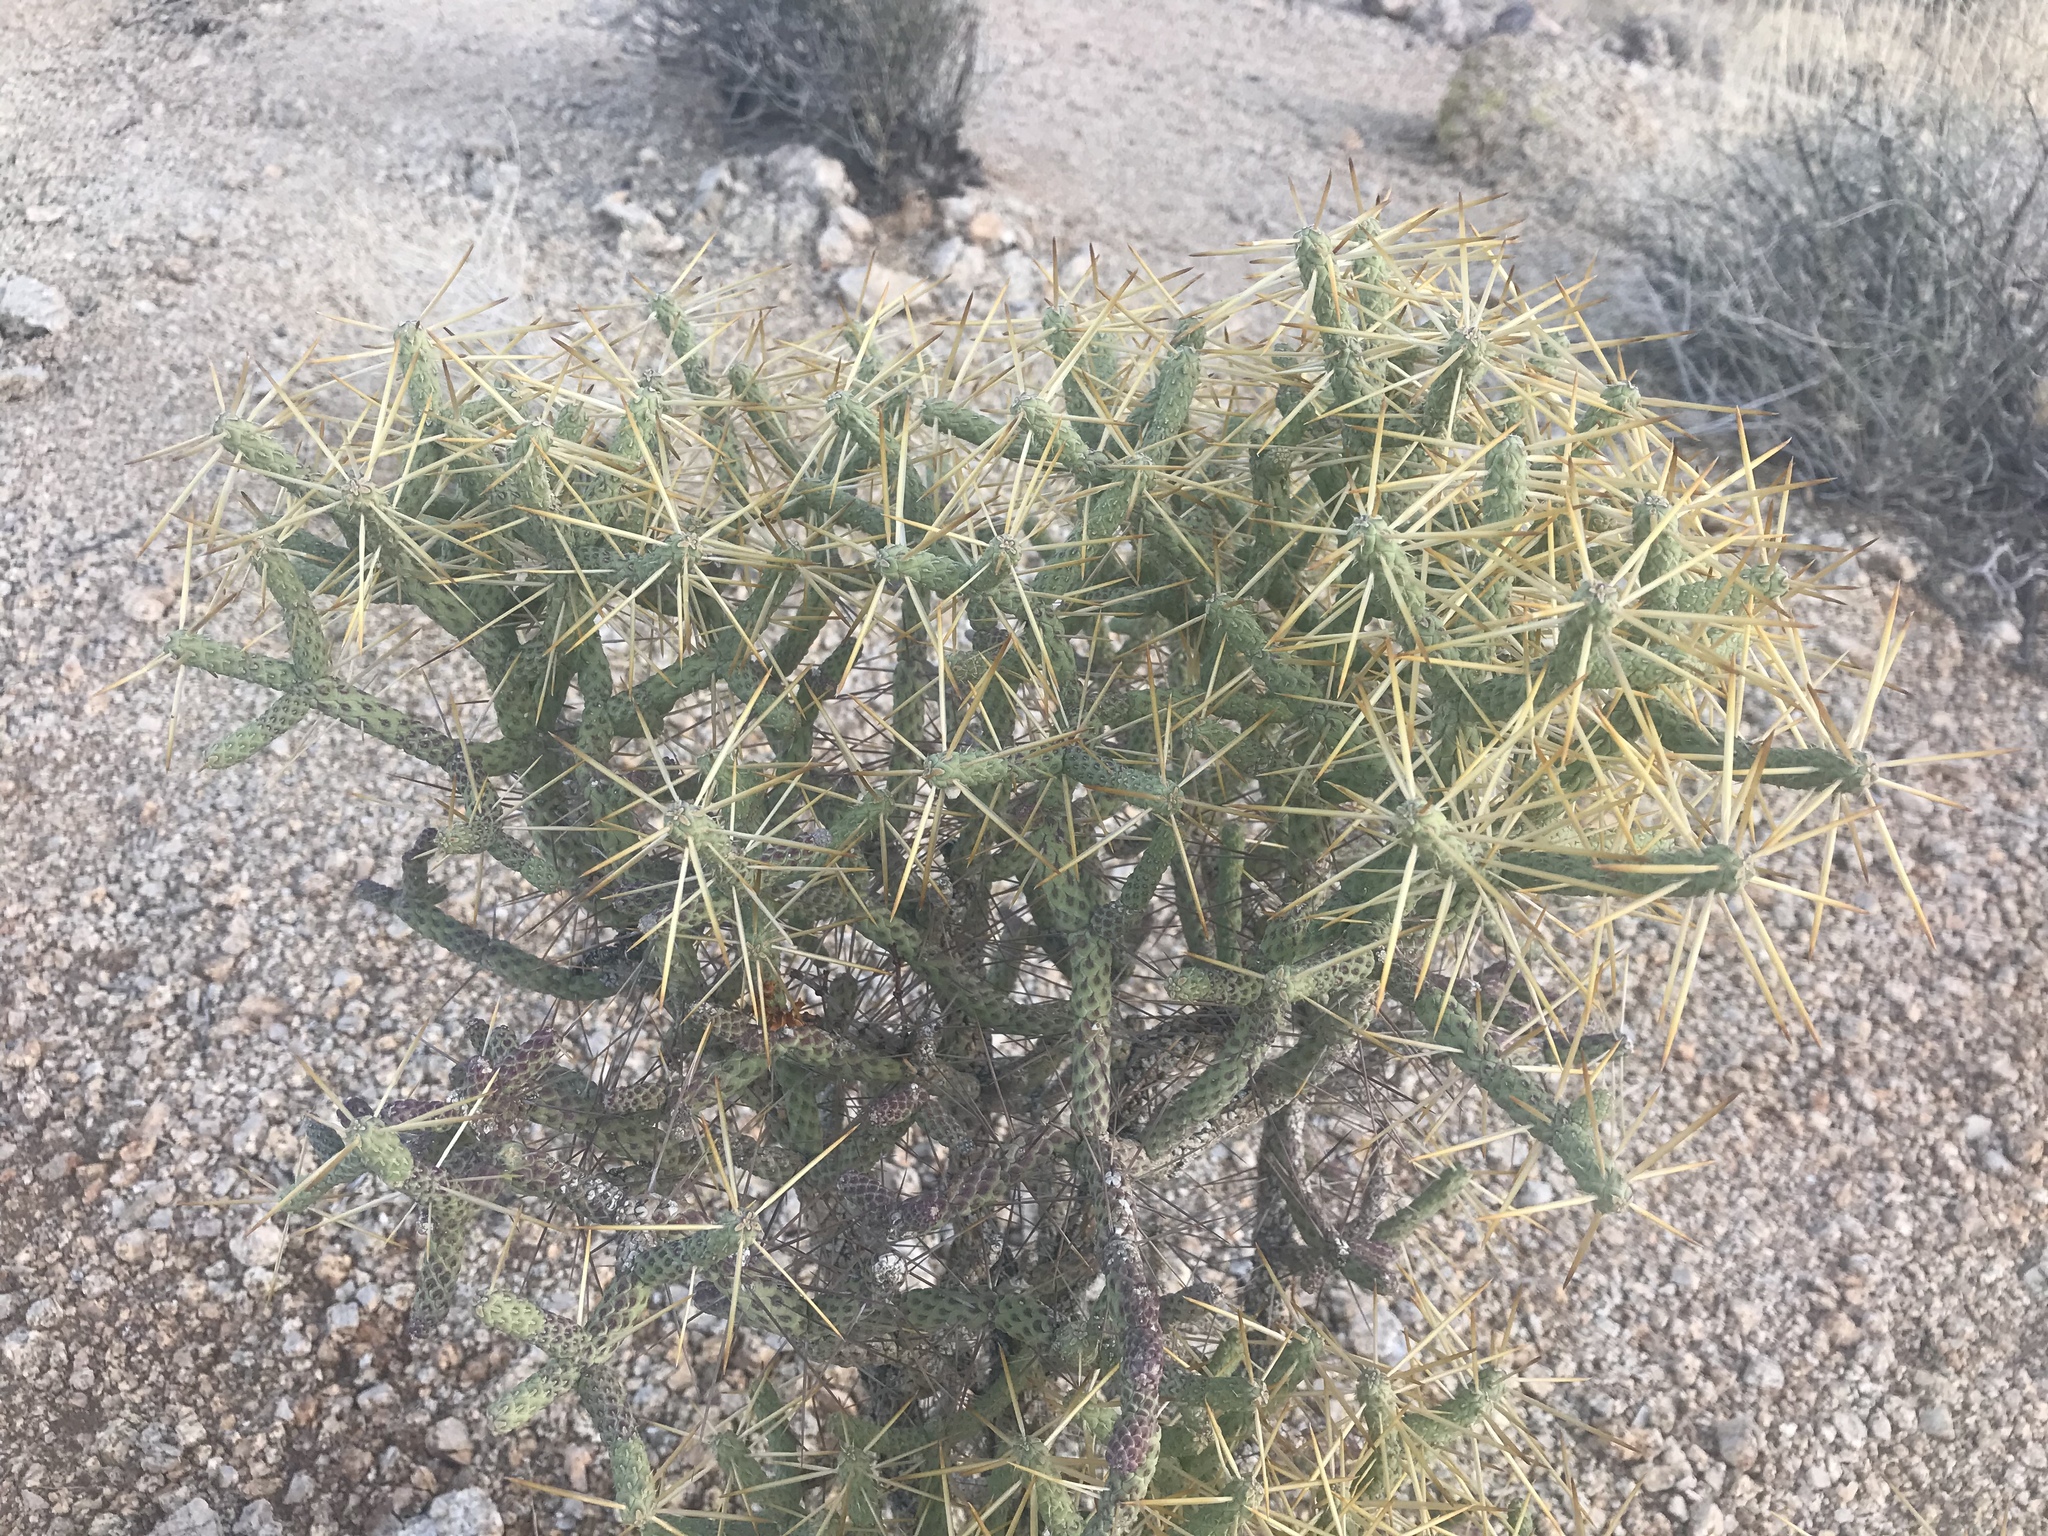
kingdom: Plantae
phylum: Tracheophyta
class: Magnoliopsida
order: Caryophyllales
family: Cactaceae
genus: Cylindropuntia
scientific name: Cylindropuntia ramosissima
